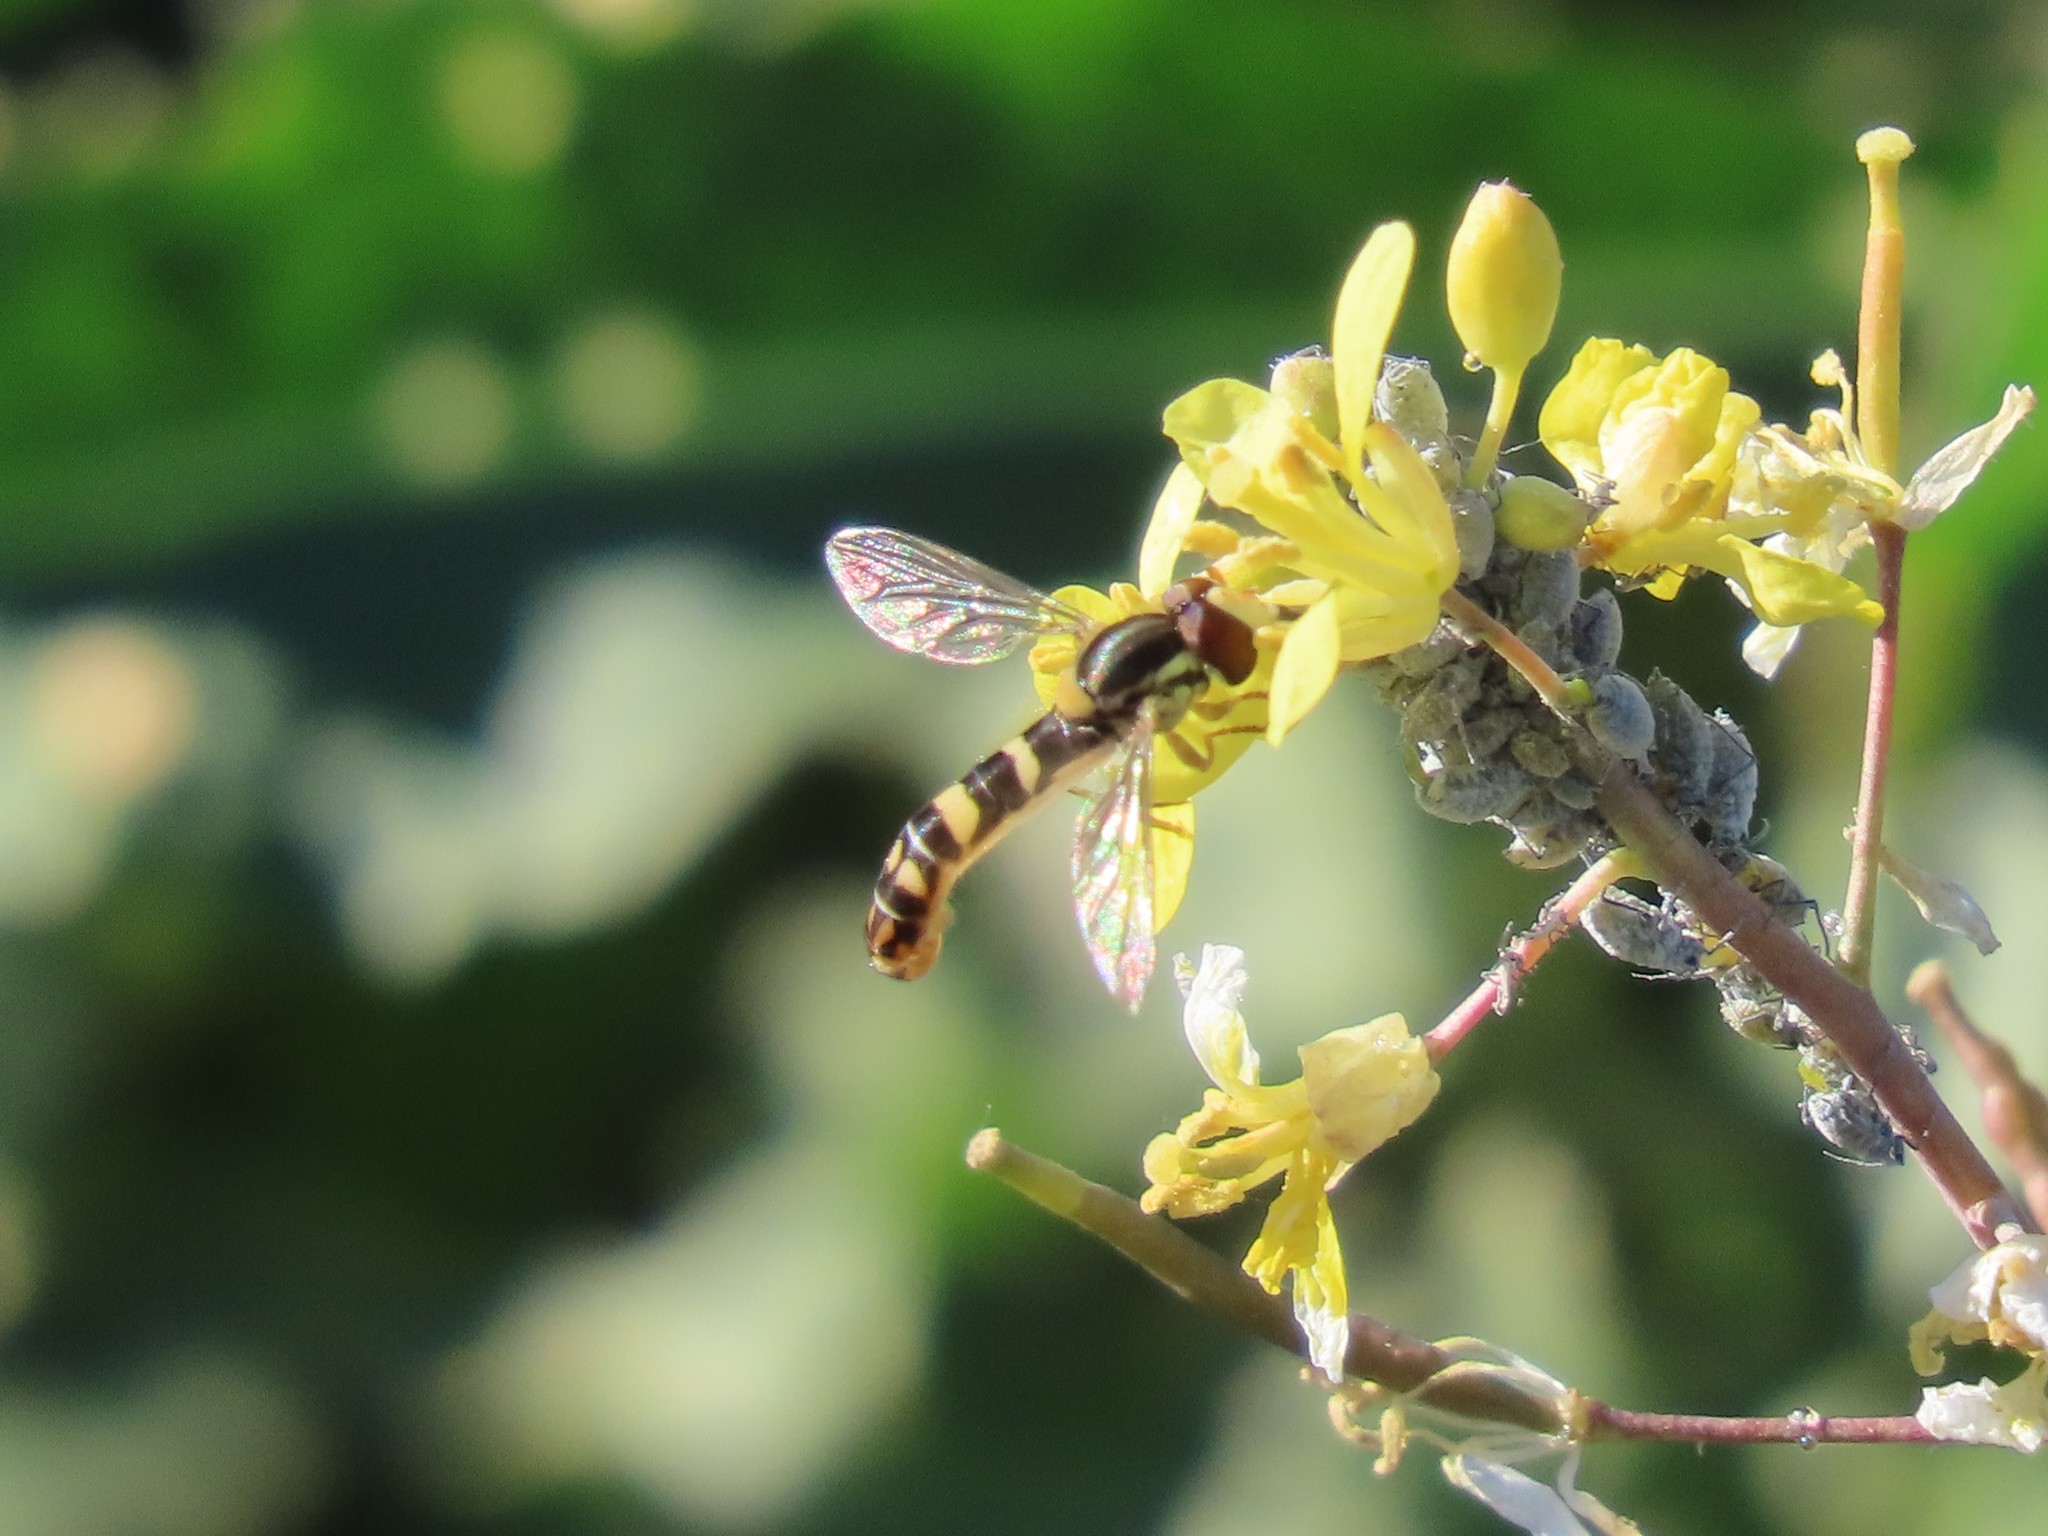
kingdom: Animalia
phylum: Arthropoda
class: Insecta
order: Diptera
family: Syrphidae
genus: Sphaerophoria
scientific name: Sphaerophoria scripta
